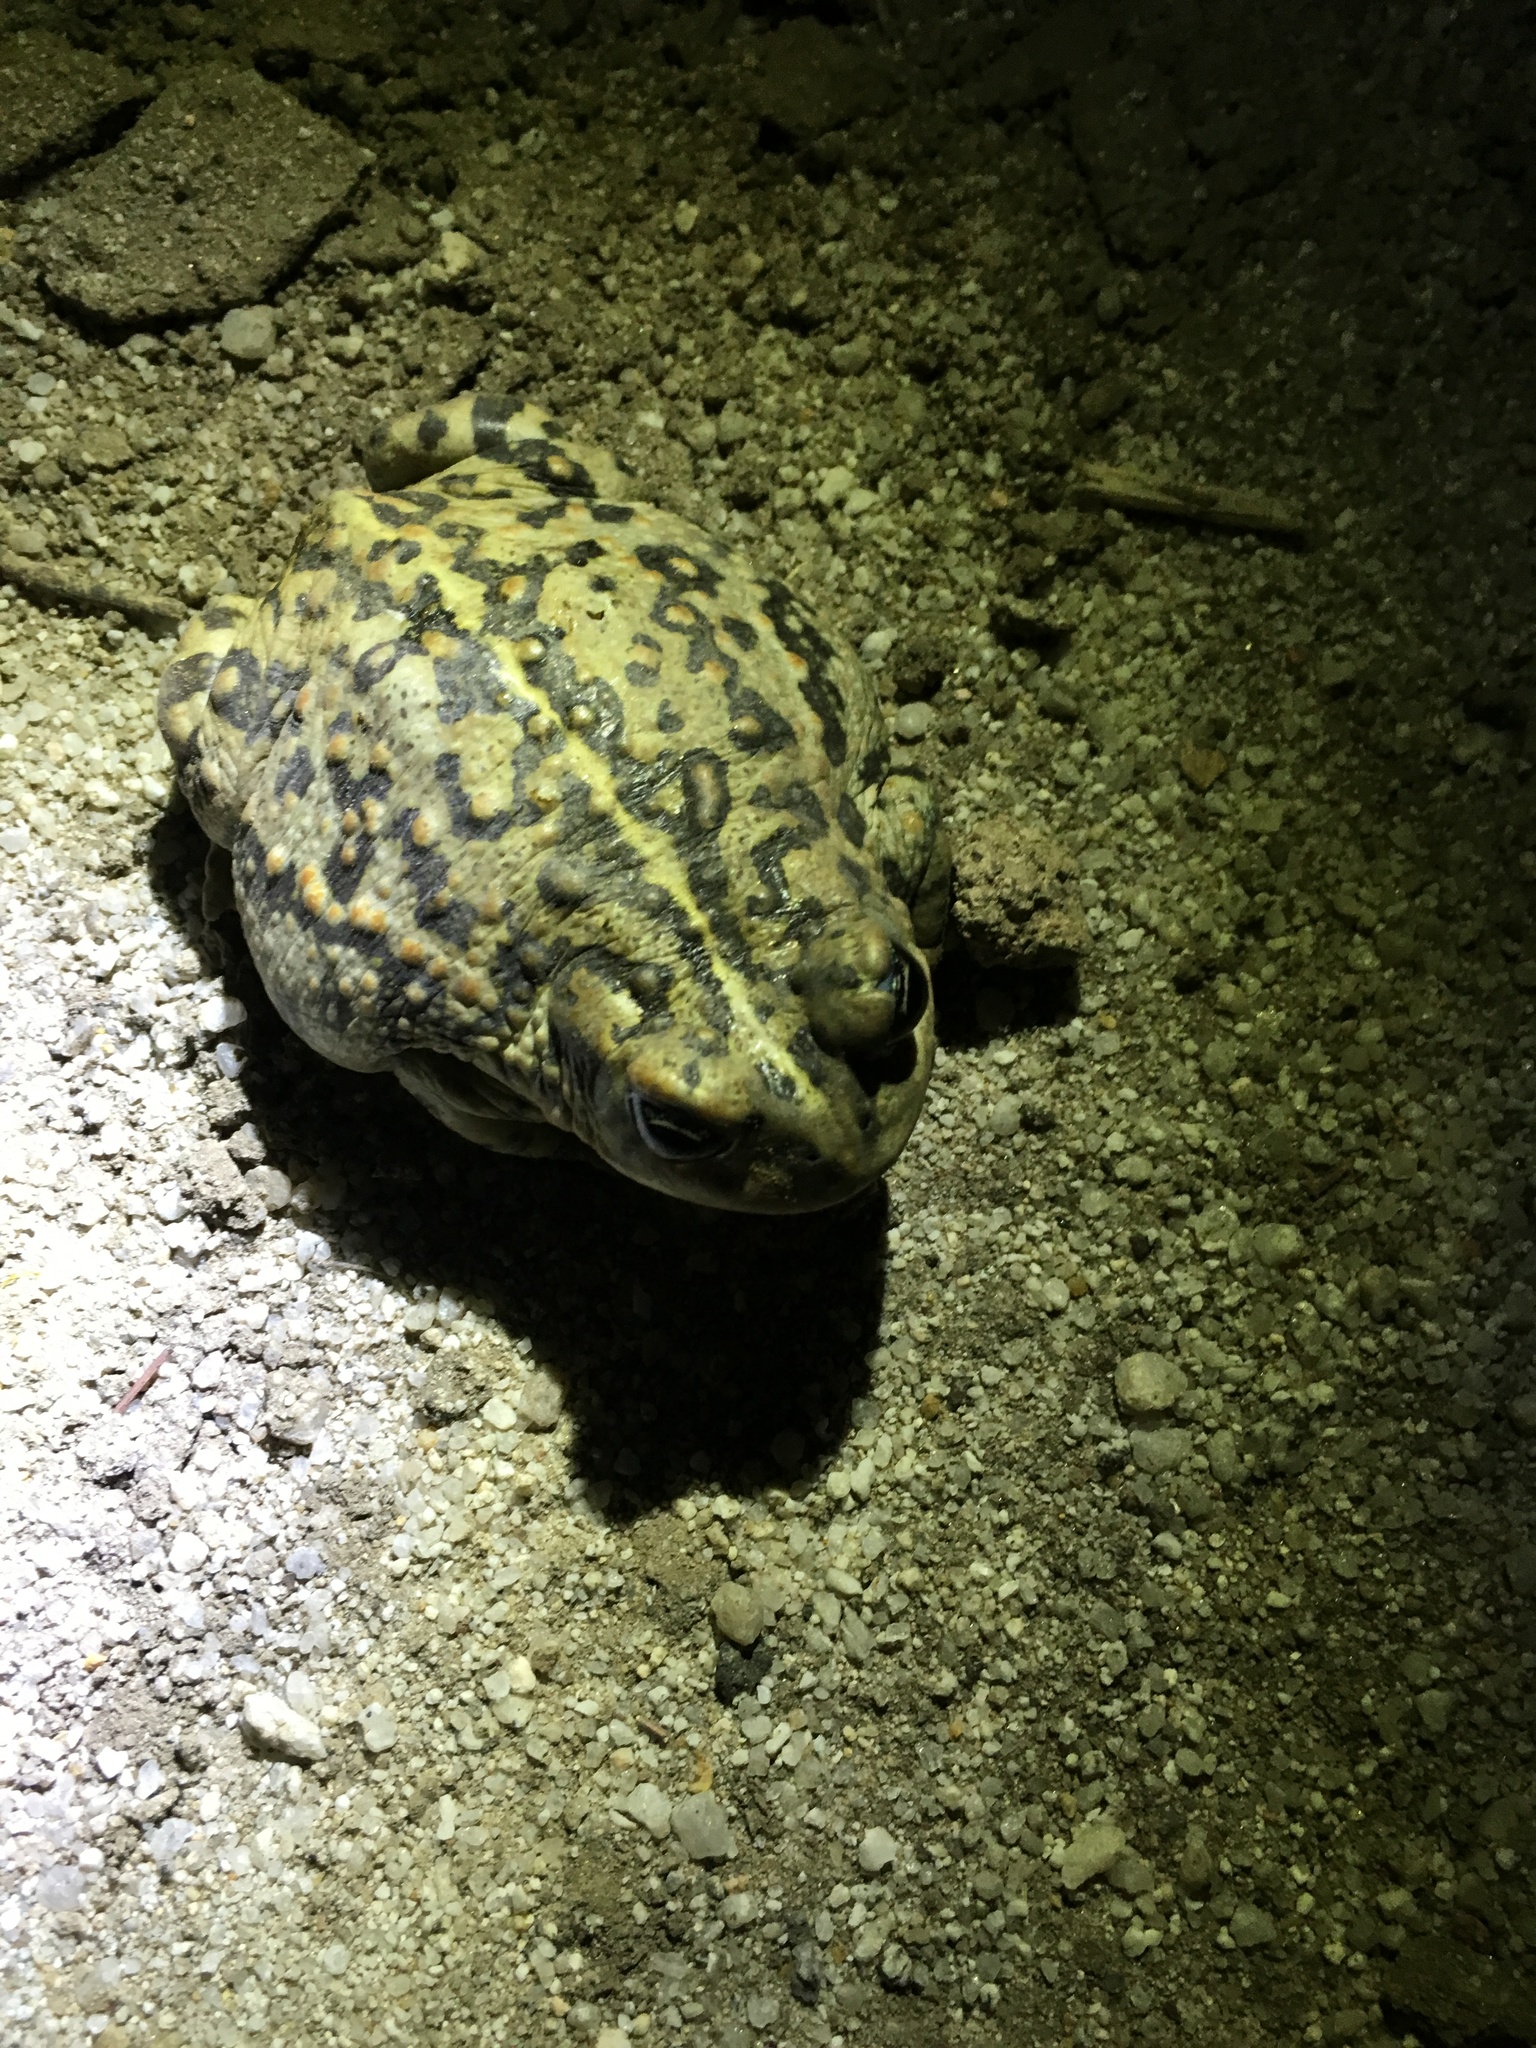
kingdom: Animalia
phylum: Chordata
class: Amphibia
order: Anura
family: Bufonidae
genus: Anaxyrus
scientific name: Anaxyrus boreas
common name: Western toad
